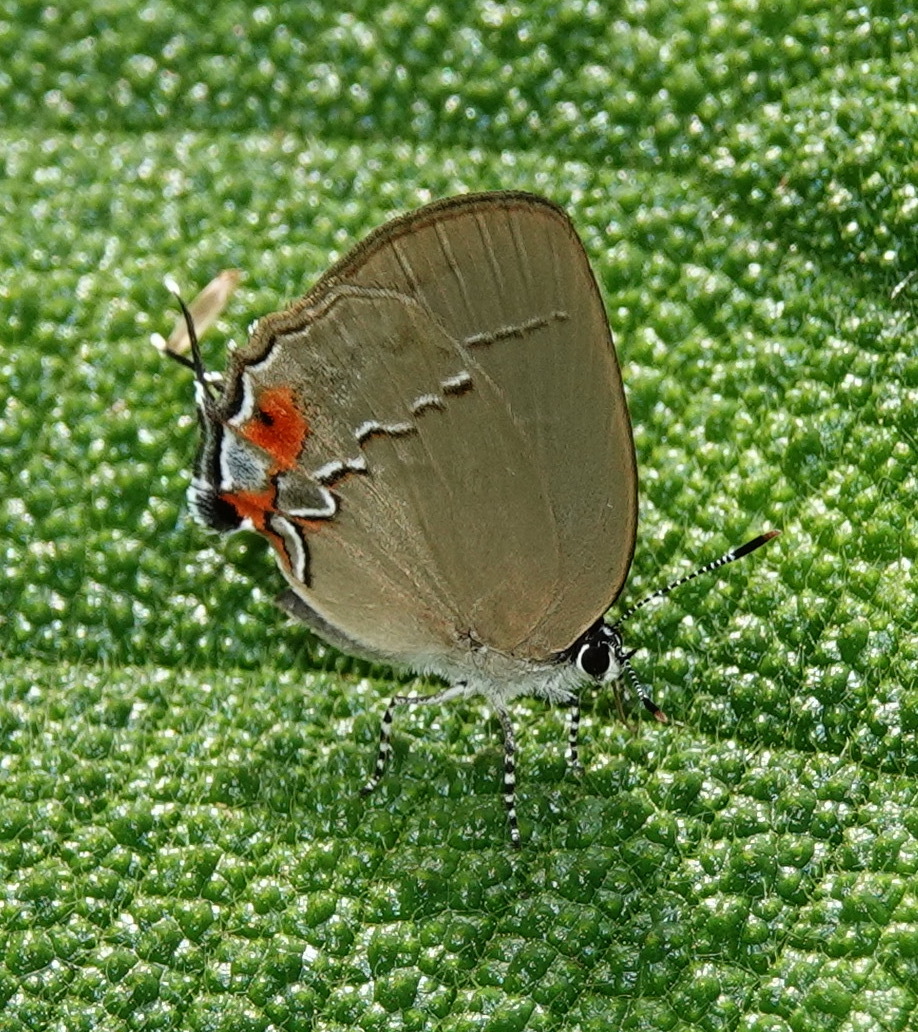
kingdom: Animalia
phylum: Arthropoda
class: Insecta
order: Lepidoptera
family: Lycaenidae
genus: Thecla
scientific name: Thecla gargara
